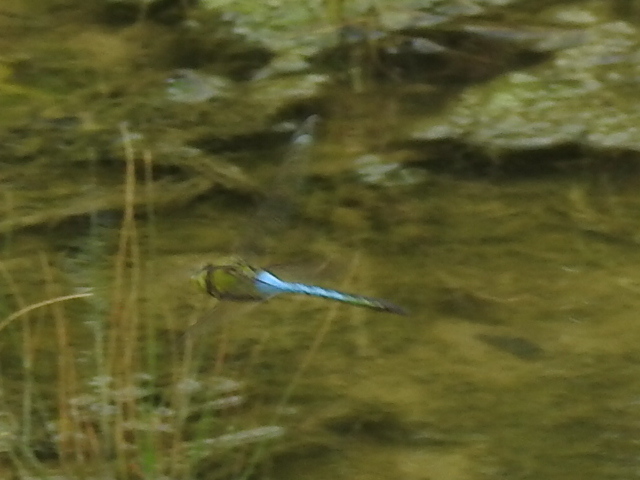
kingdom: Animalia
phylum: Arthropoda
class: Insecta
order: Odonata
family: Aeshnidae
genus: Anax
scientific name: Anax junius
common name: Common green darner
